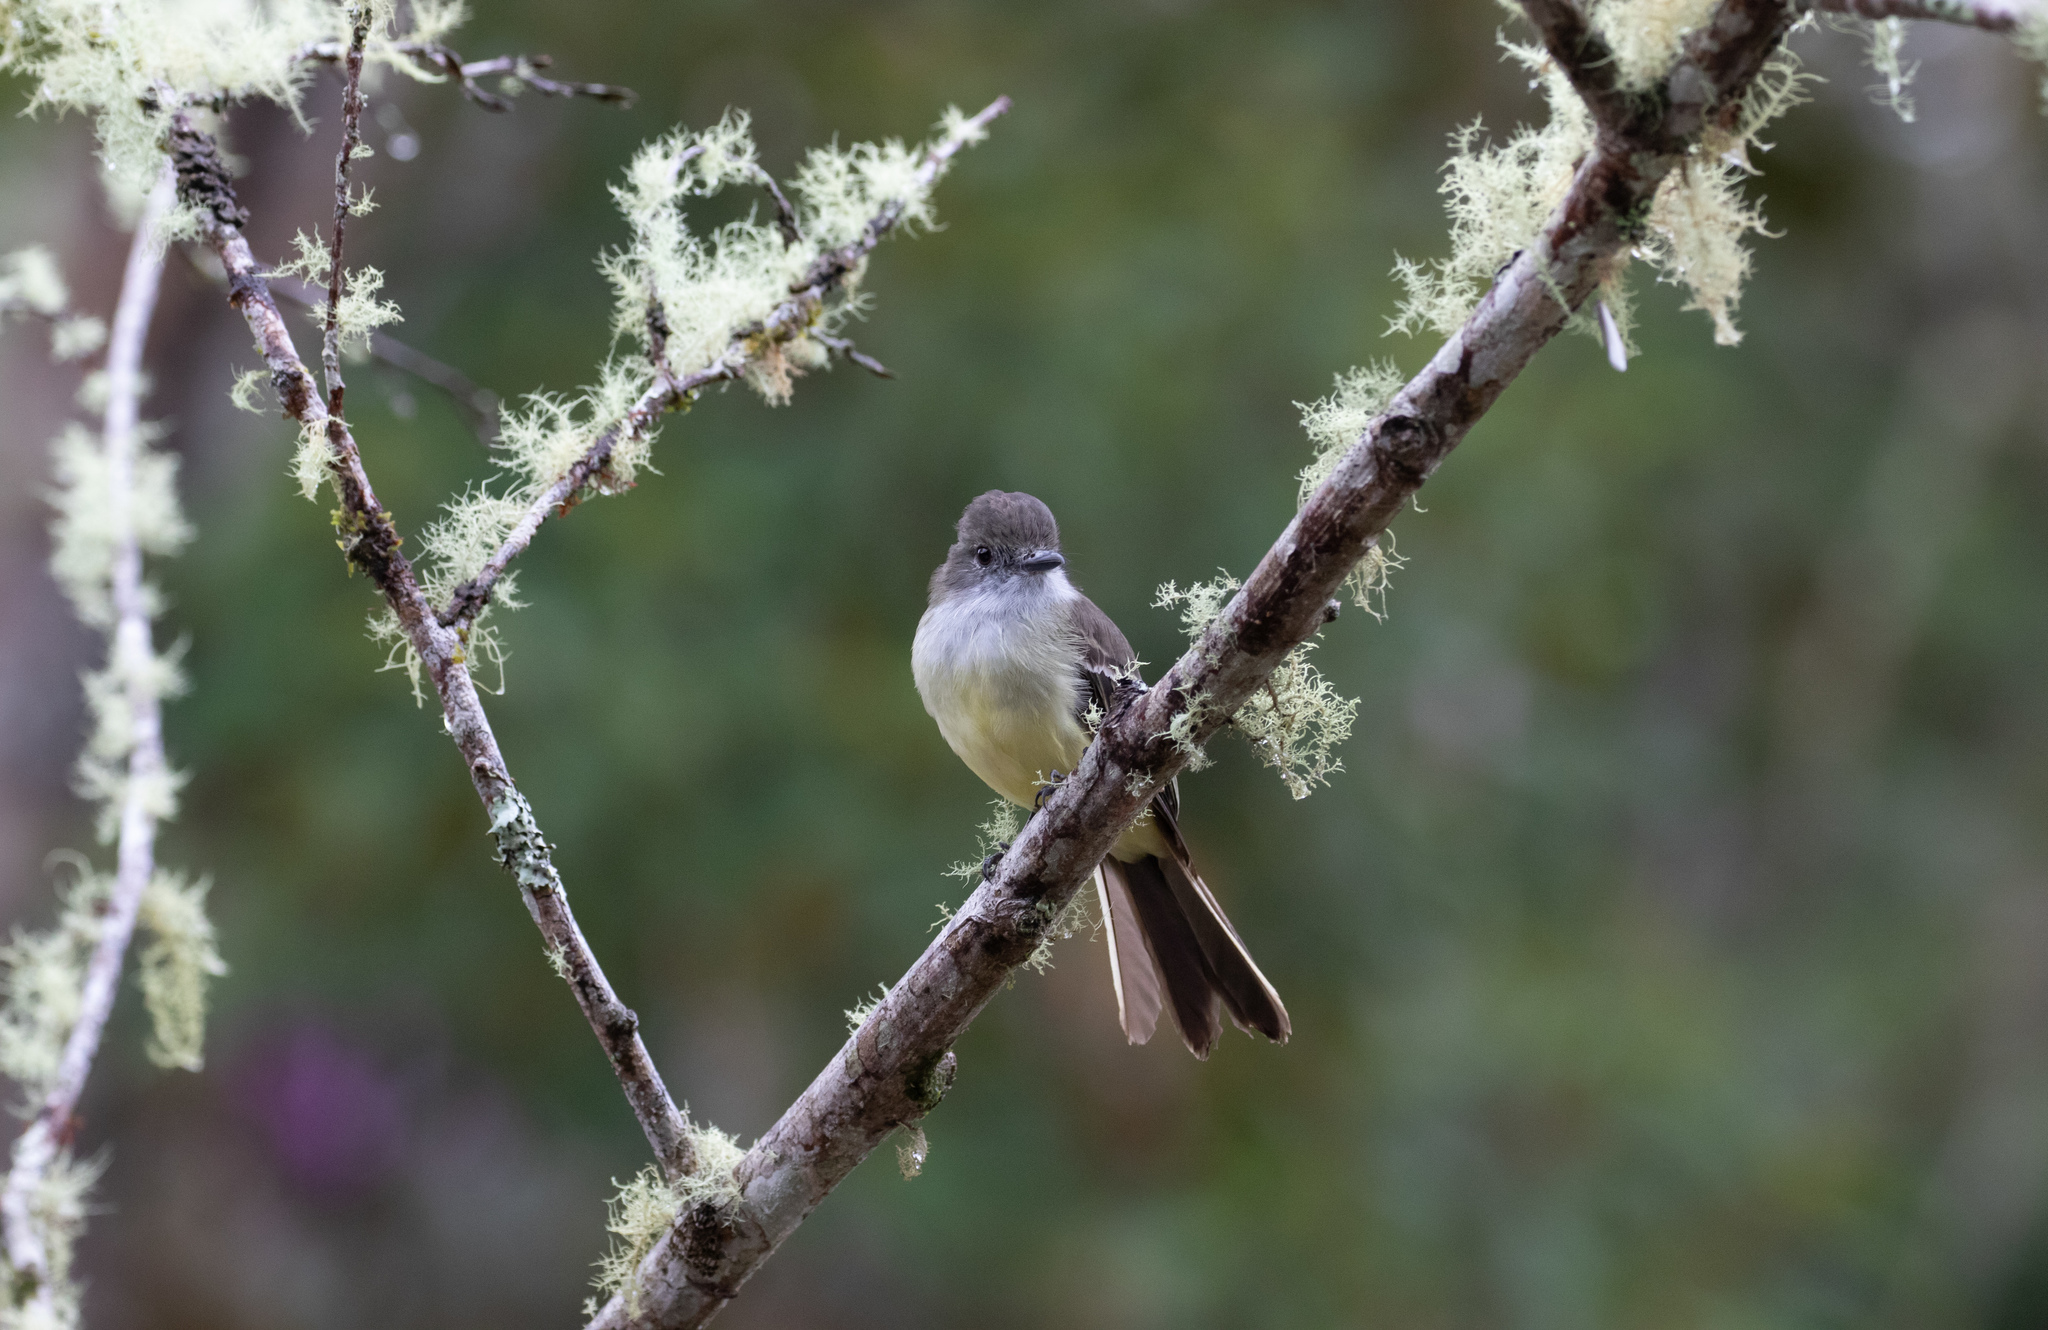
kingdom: Animalia
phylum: Chordata
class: Aves
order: Passeriformes
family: Tyrannidae
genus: Myiarchus
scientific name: Myiarchus cephalotes
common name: Pale-edged flycatcher
